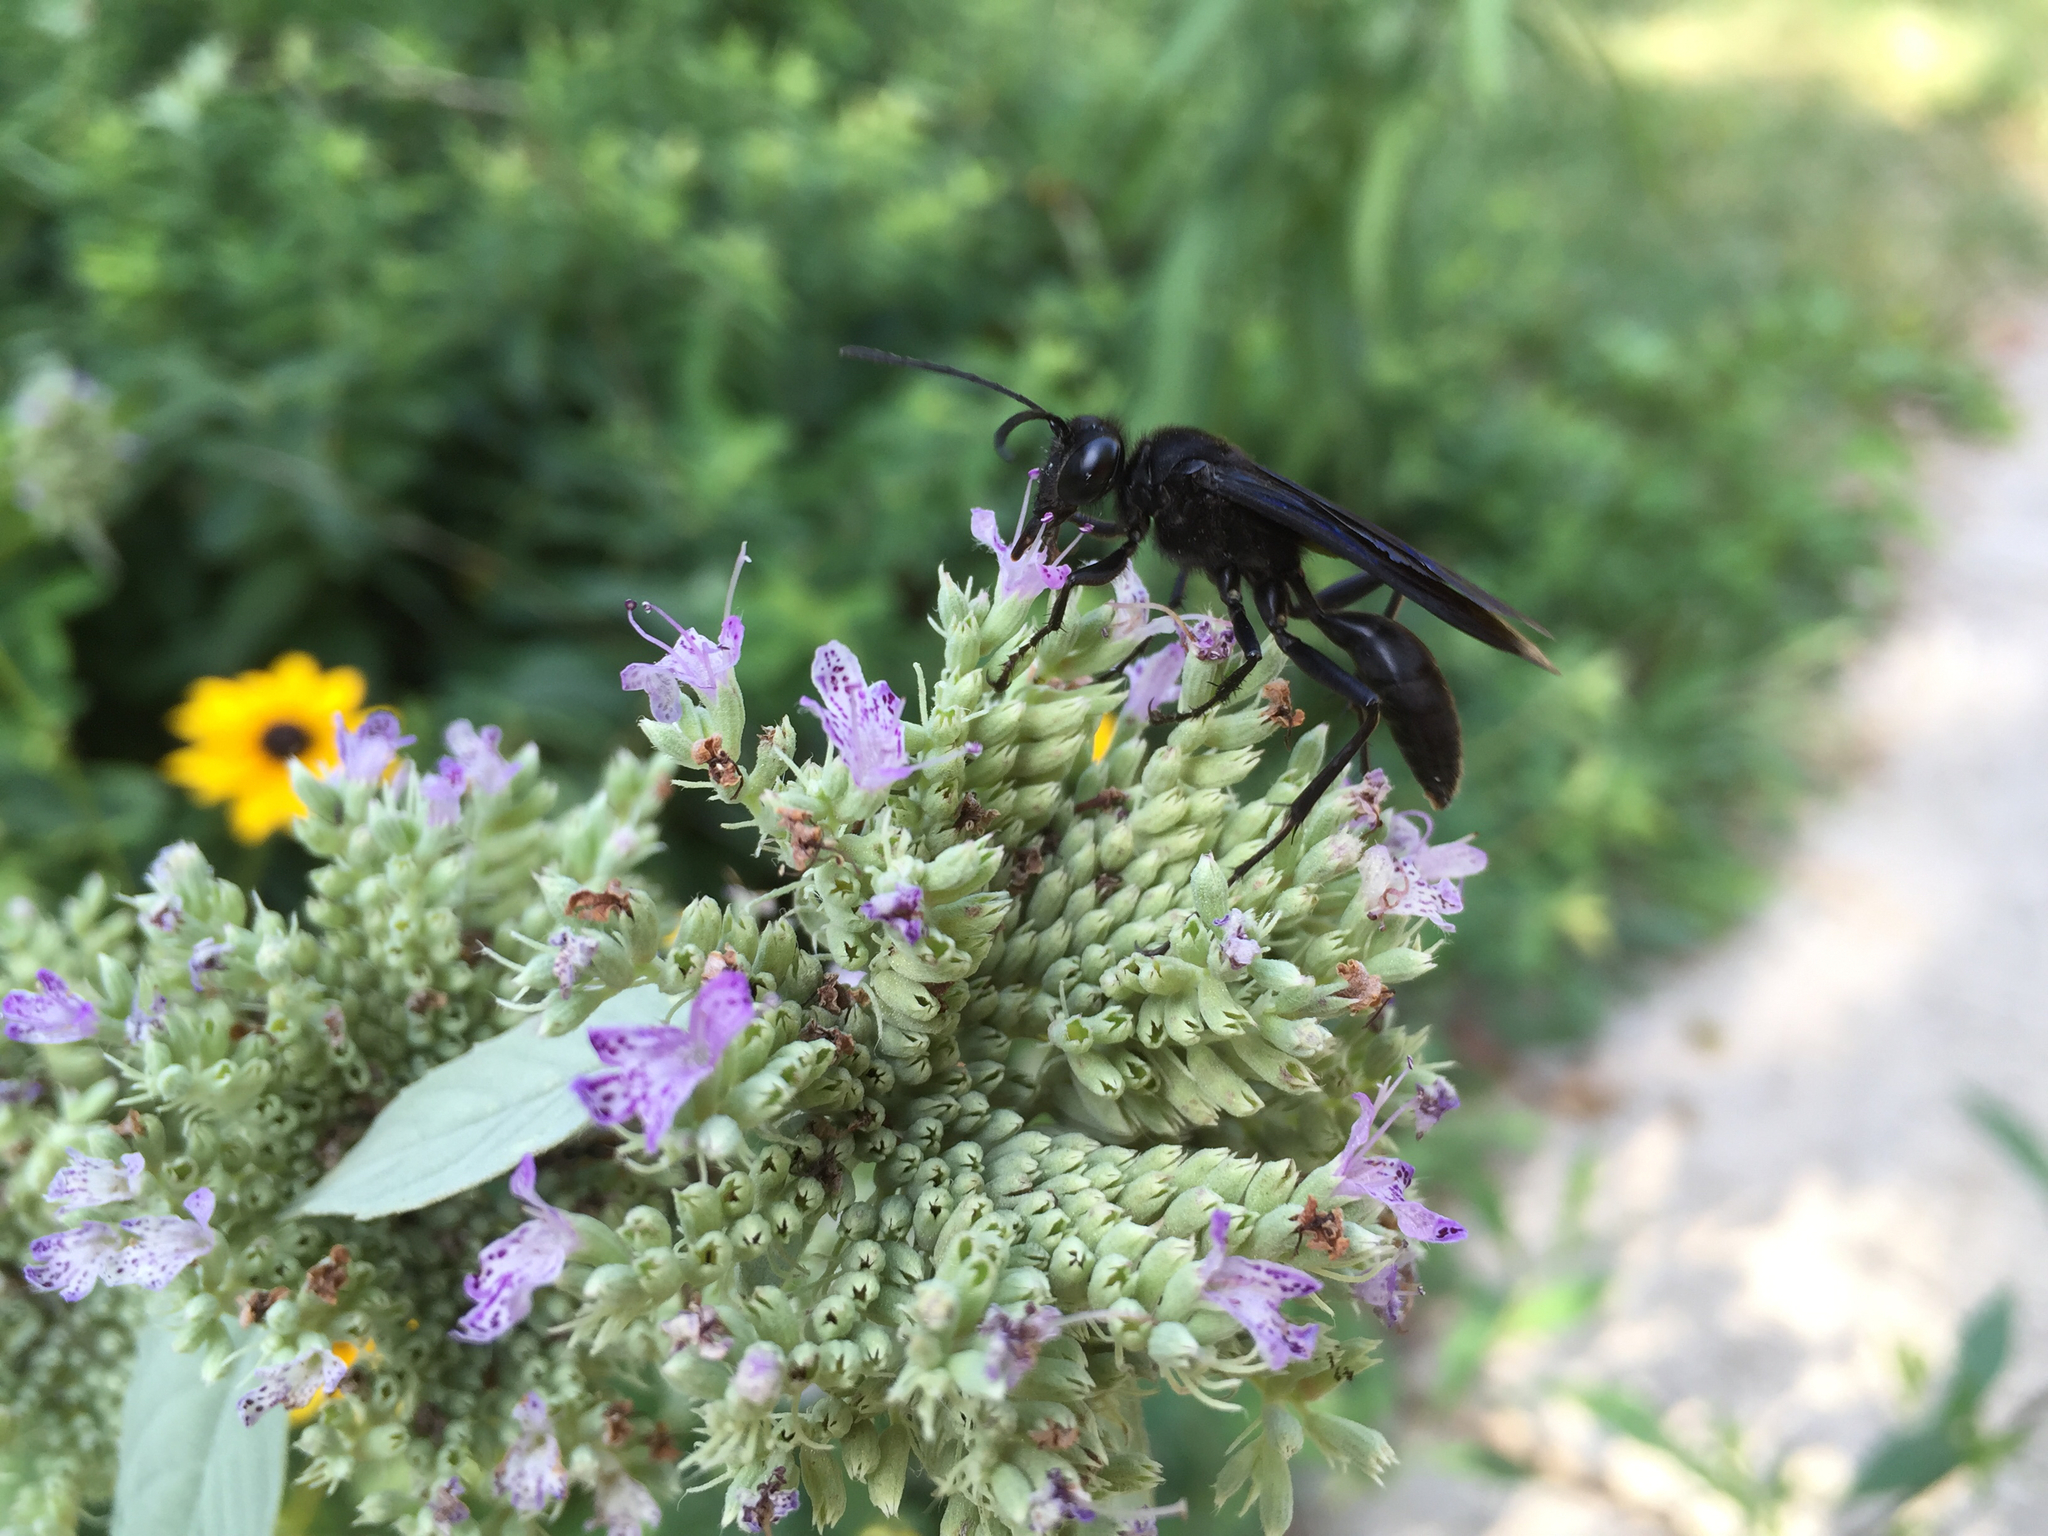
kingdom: Animalia
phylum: Arthropoda
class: Insecta
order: Hymenoptera
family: Sphecidae
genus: Sphex
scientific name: Sphex pensylvanicus
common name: Great black digger wasp
